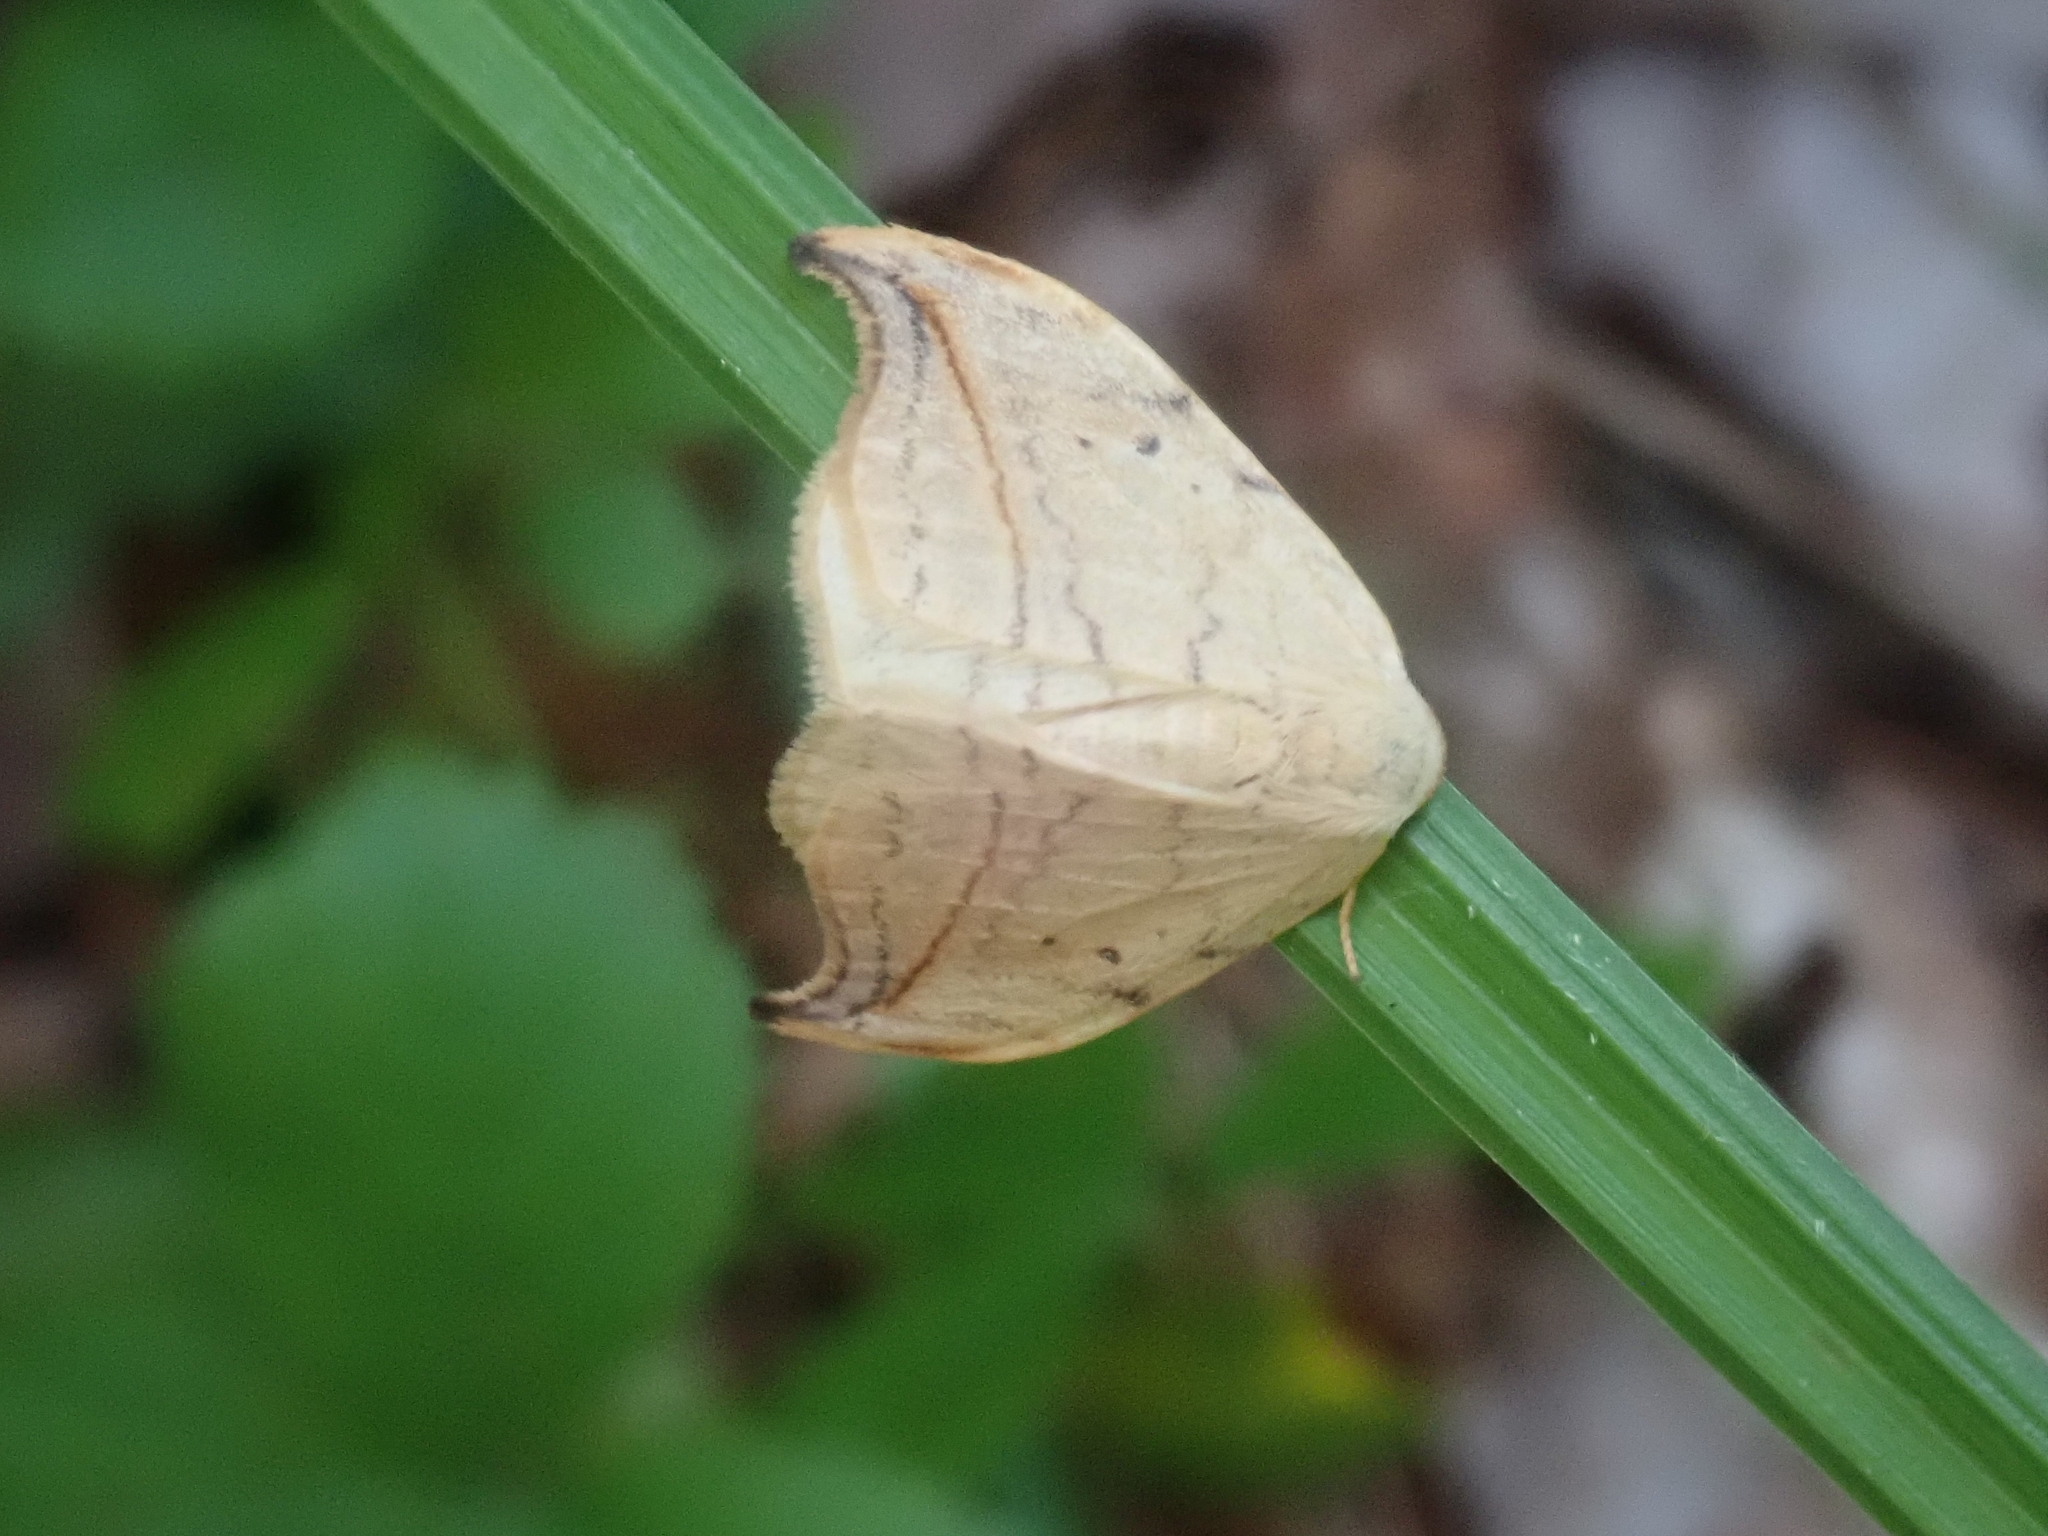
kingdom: Animalia
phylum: Arthropoda
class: Insecta
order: Lepidoptera
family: Drepanidae
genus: Drepana
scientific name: Drepana arcuata
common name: Arched hooktip moth
